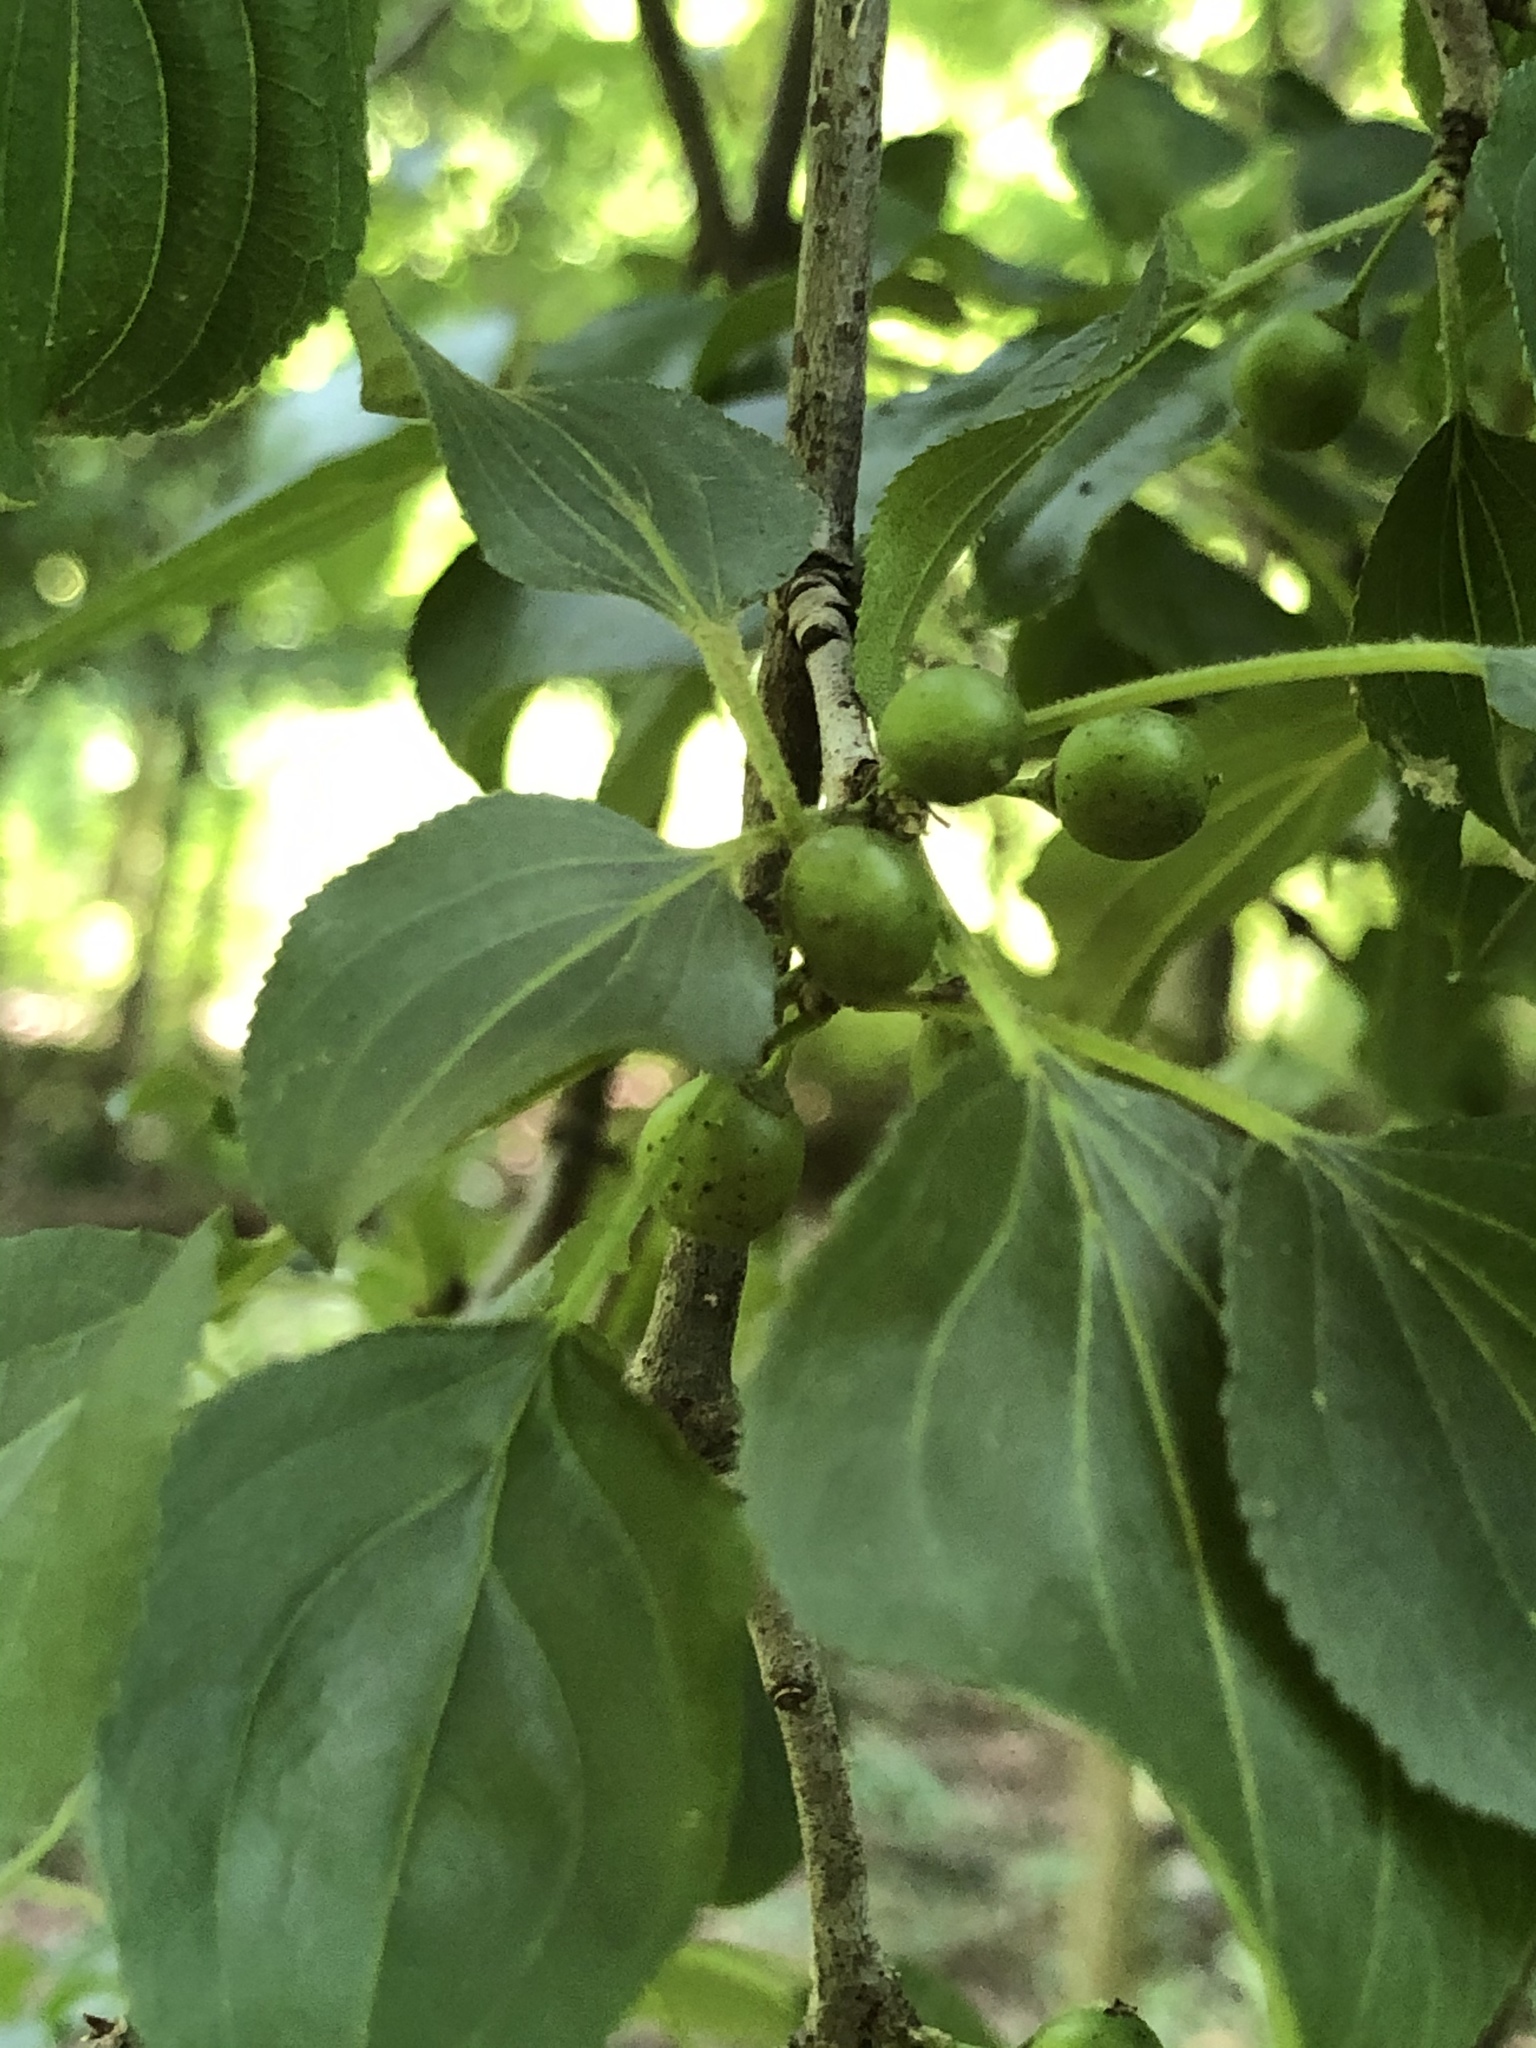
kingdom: Plantae
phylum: Tracheophyta
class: Magnoliopsida
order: Rosales
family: Rhamnaceae
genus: Rhamnus
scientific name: Rhamnus cathartica
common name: Common buckthorn
